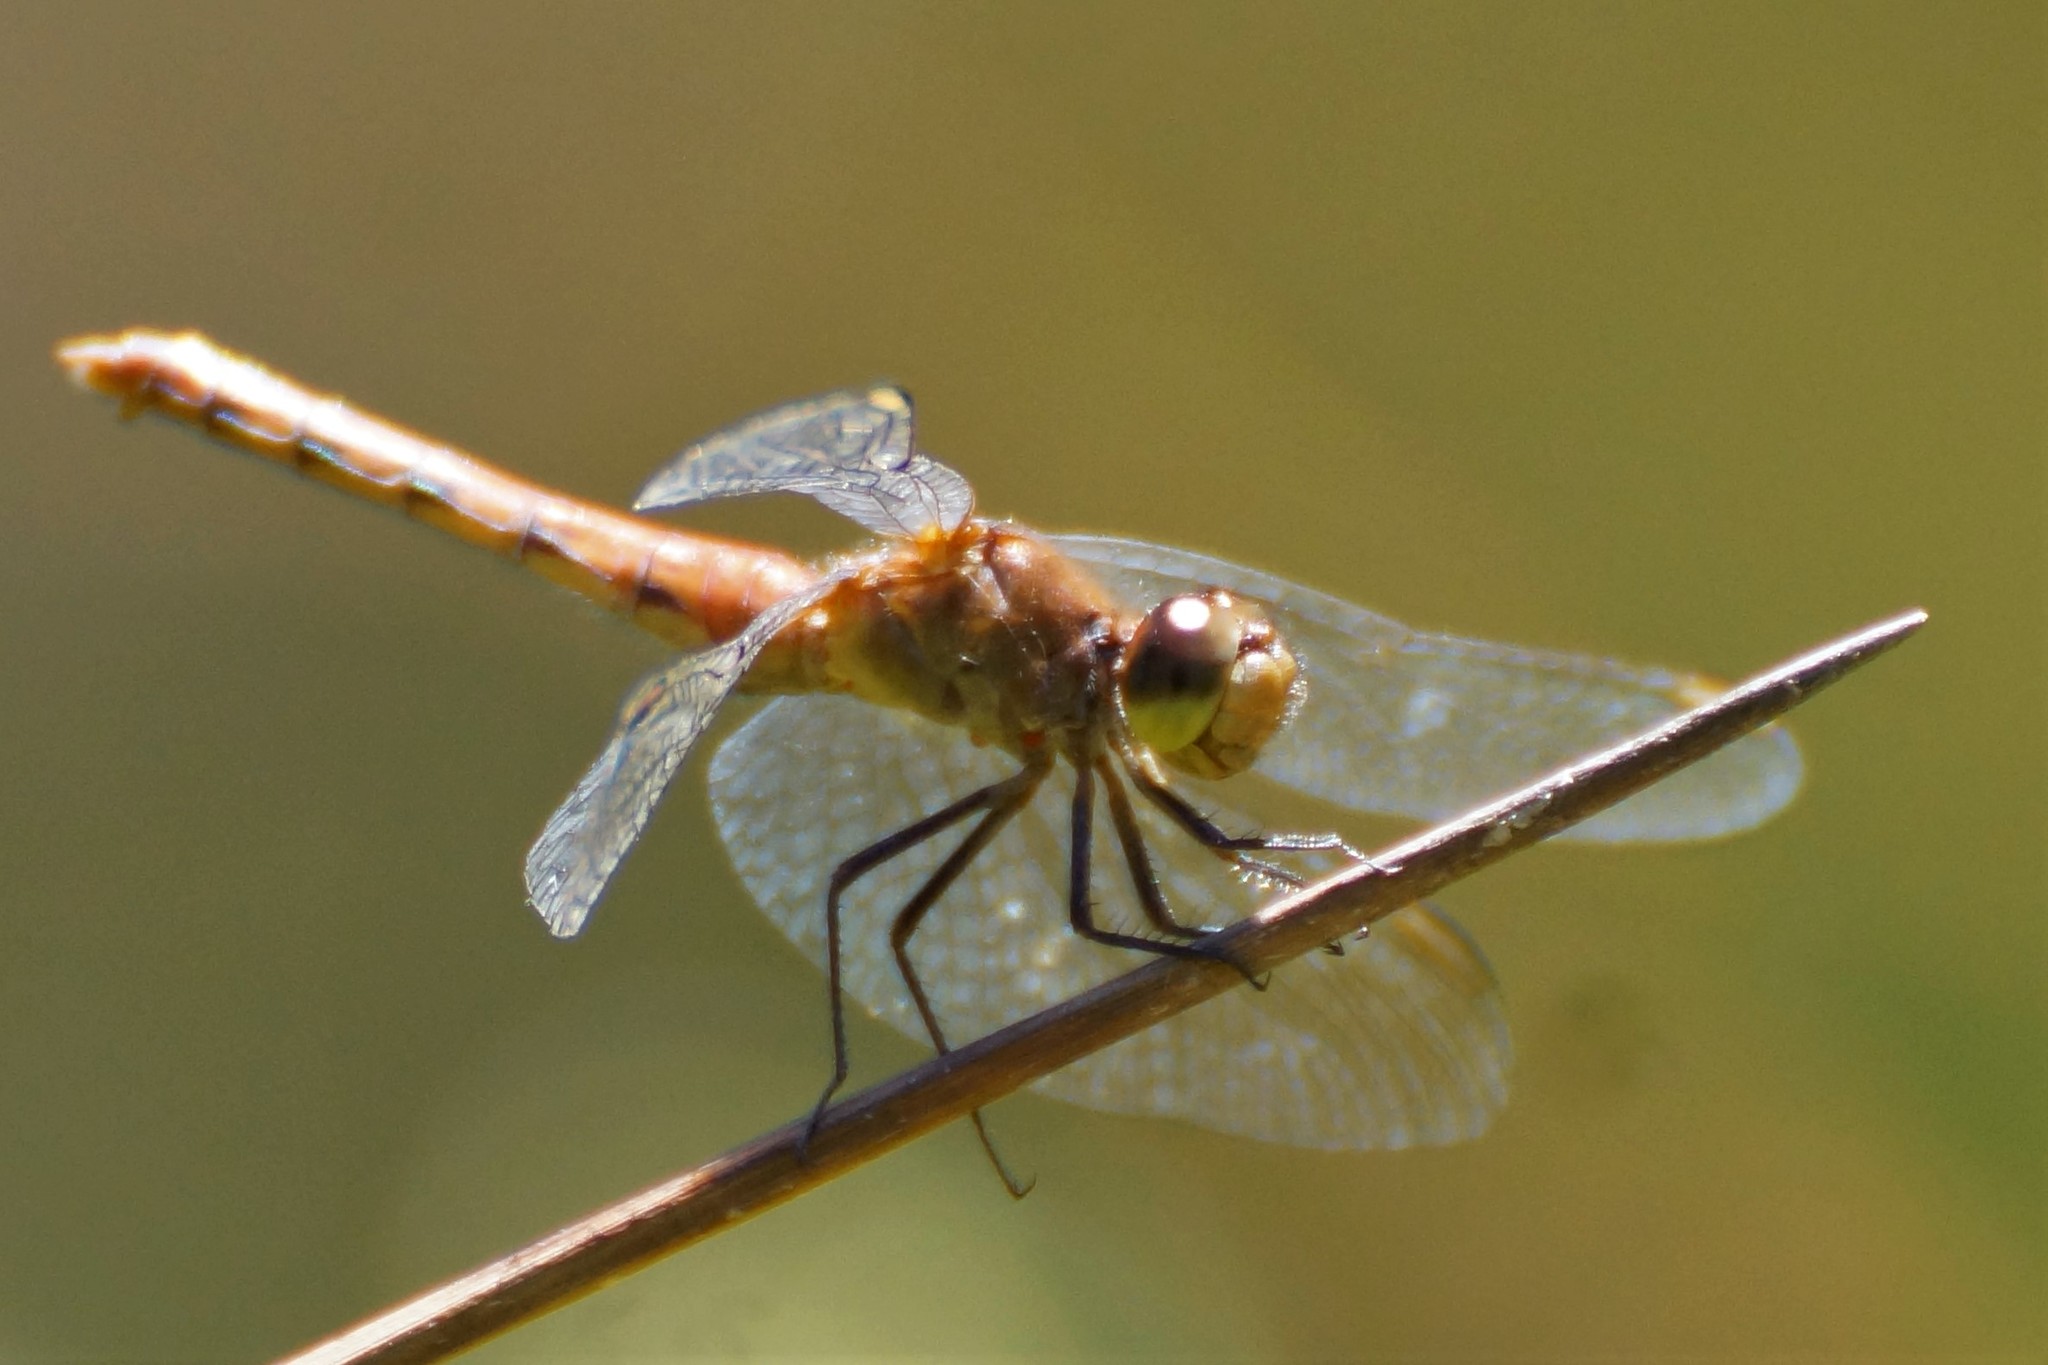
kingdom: Animalia
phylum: Arthropoda
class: Insecta
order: Odonata
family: Libellulidae
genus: Diplacodes
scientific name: Diplacodes melanopsis
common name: Black-faced percher
